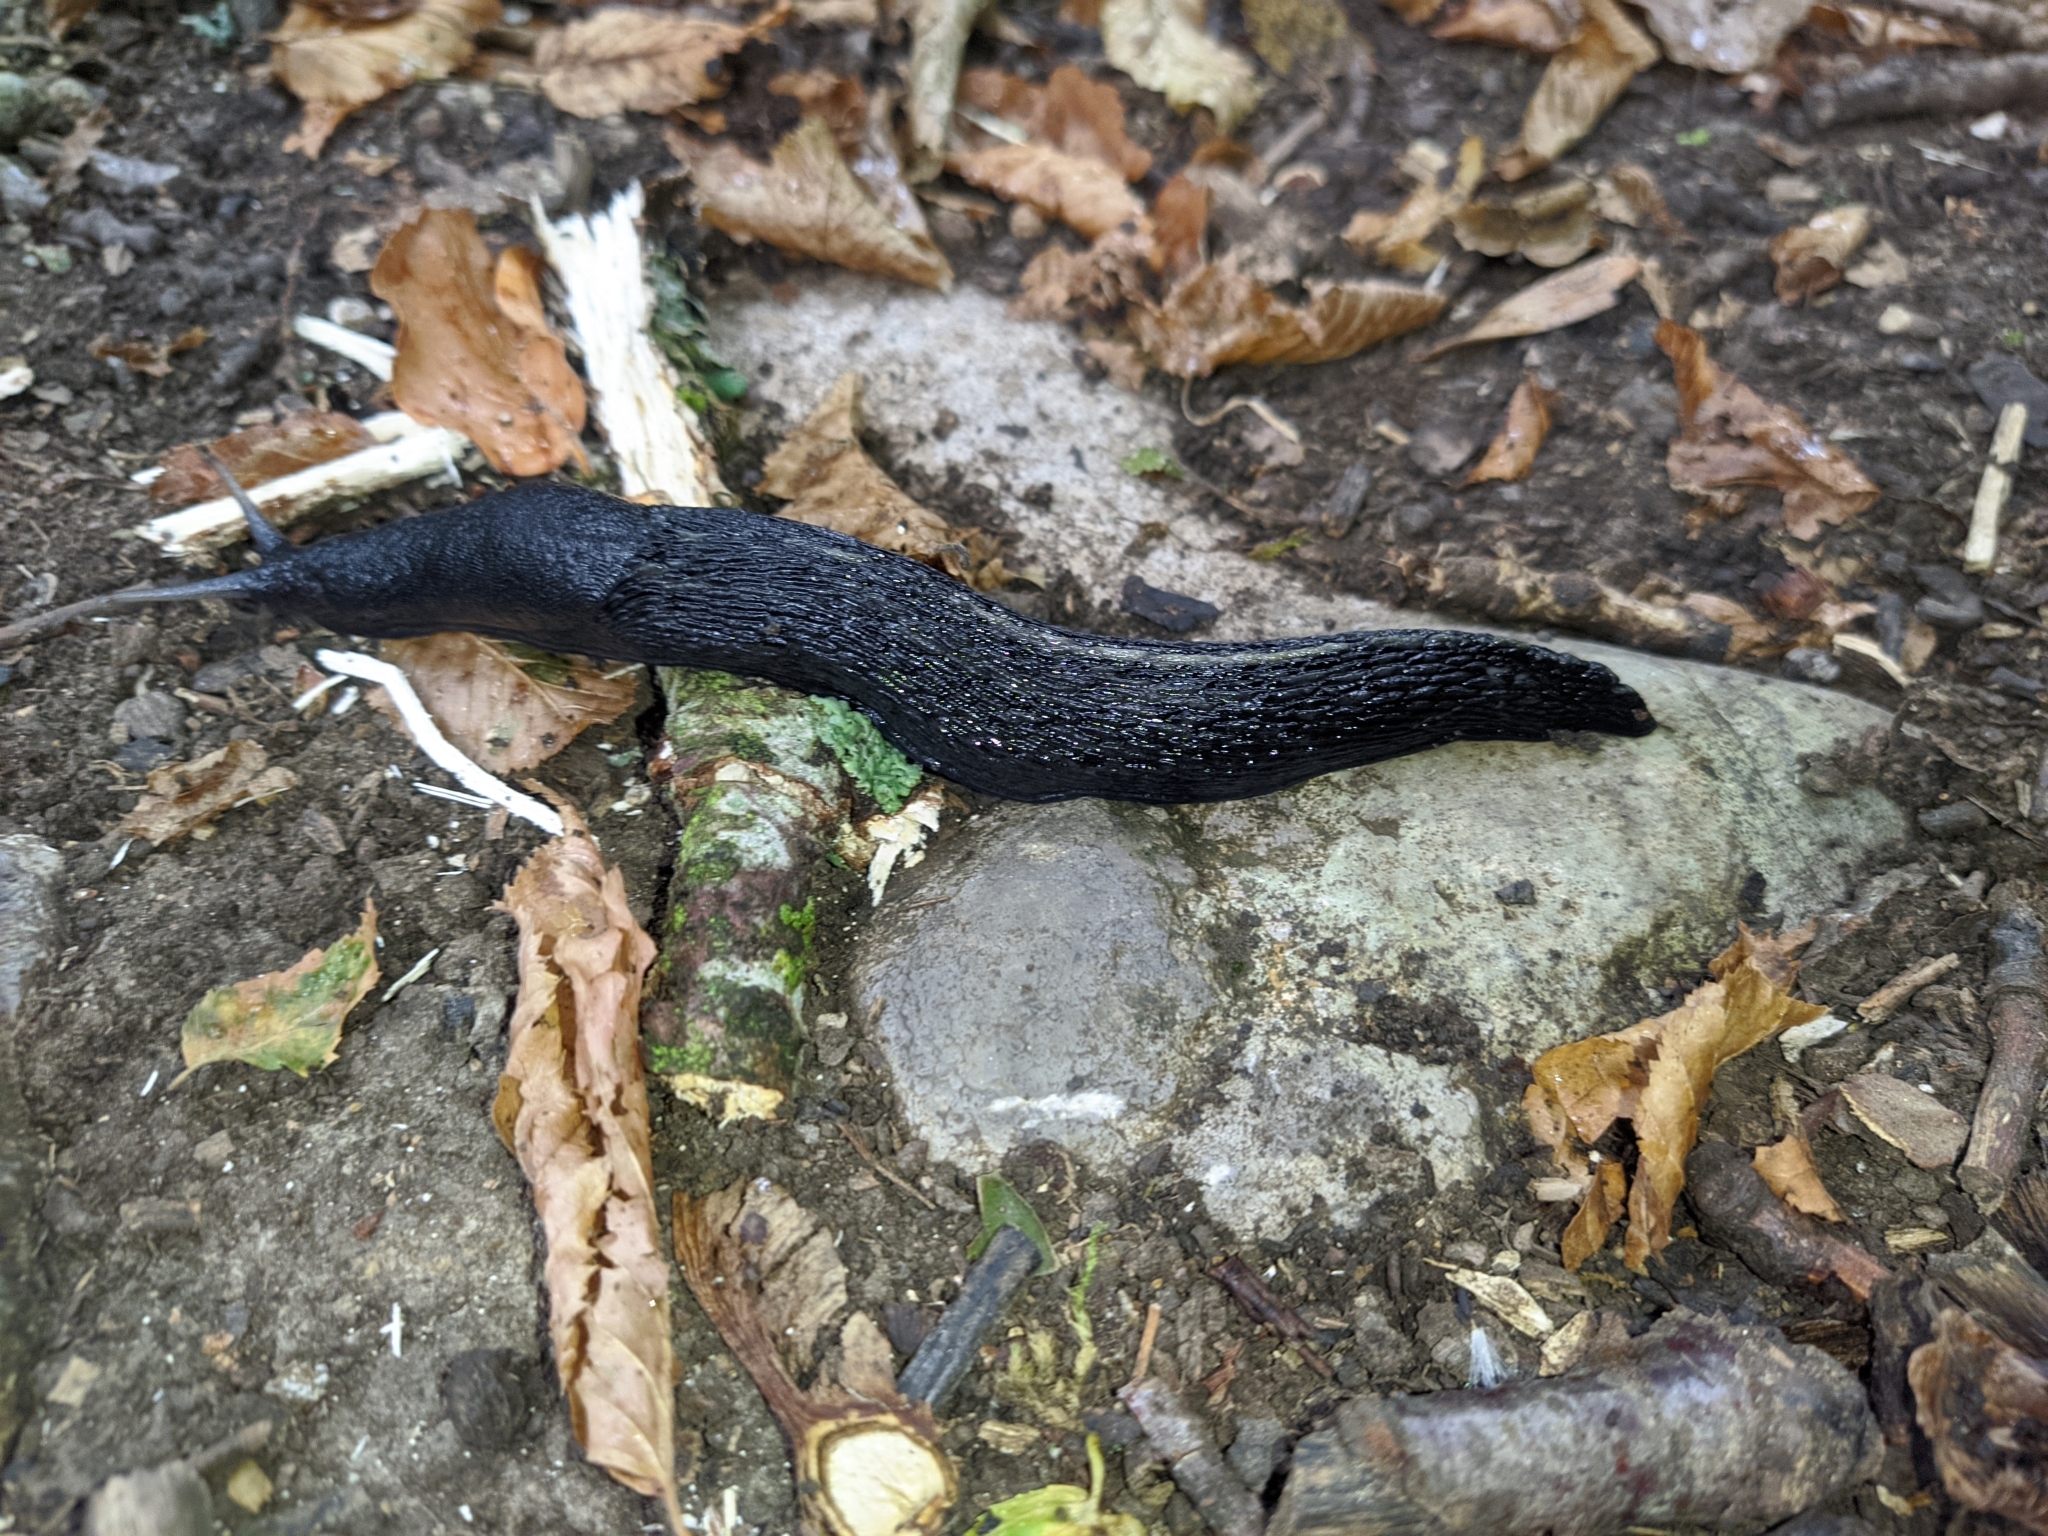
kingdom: Animalia
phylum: Mollusca
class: Gastropoda
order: Stylommatophora
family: Limacidae
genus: Limax
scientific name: Limax cinereoniger
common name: Ash-black slug
